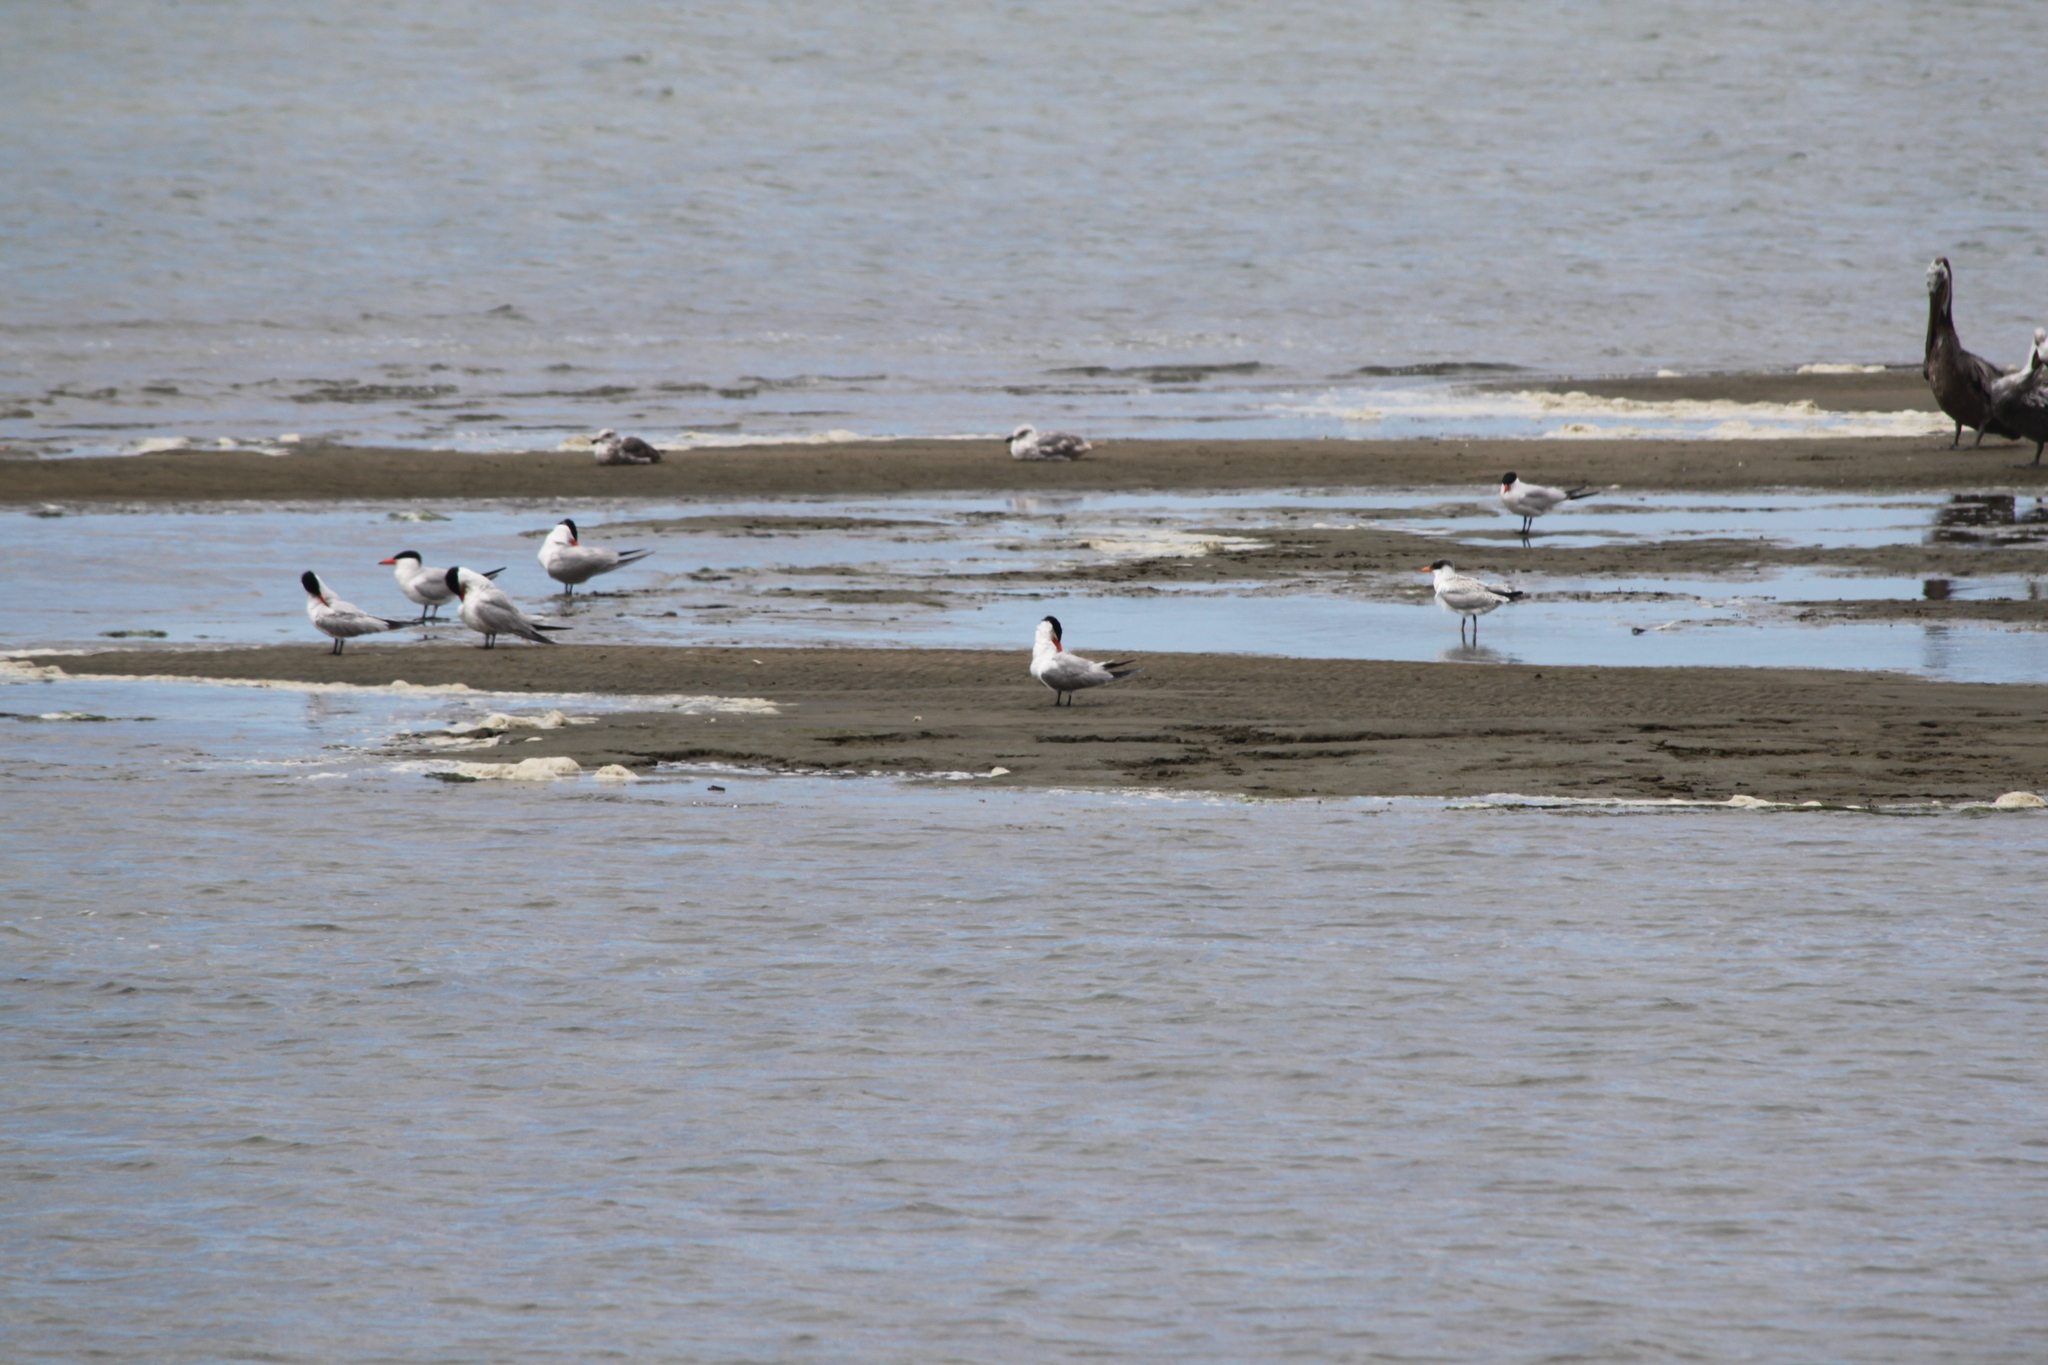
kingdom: Animalia
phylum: Chordata
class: Aves
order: Charadriiformes
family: Laridae
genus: Hydroprogne
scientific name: Hydroprogne caspia
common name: Caspian tern
